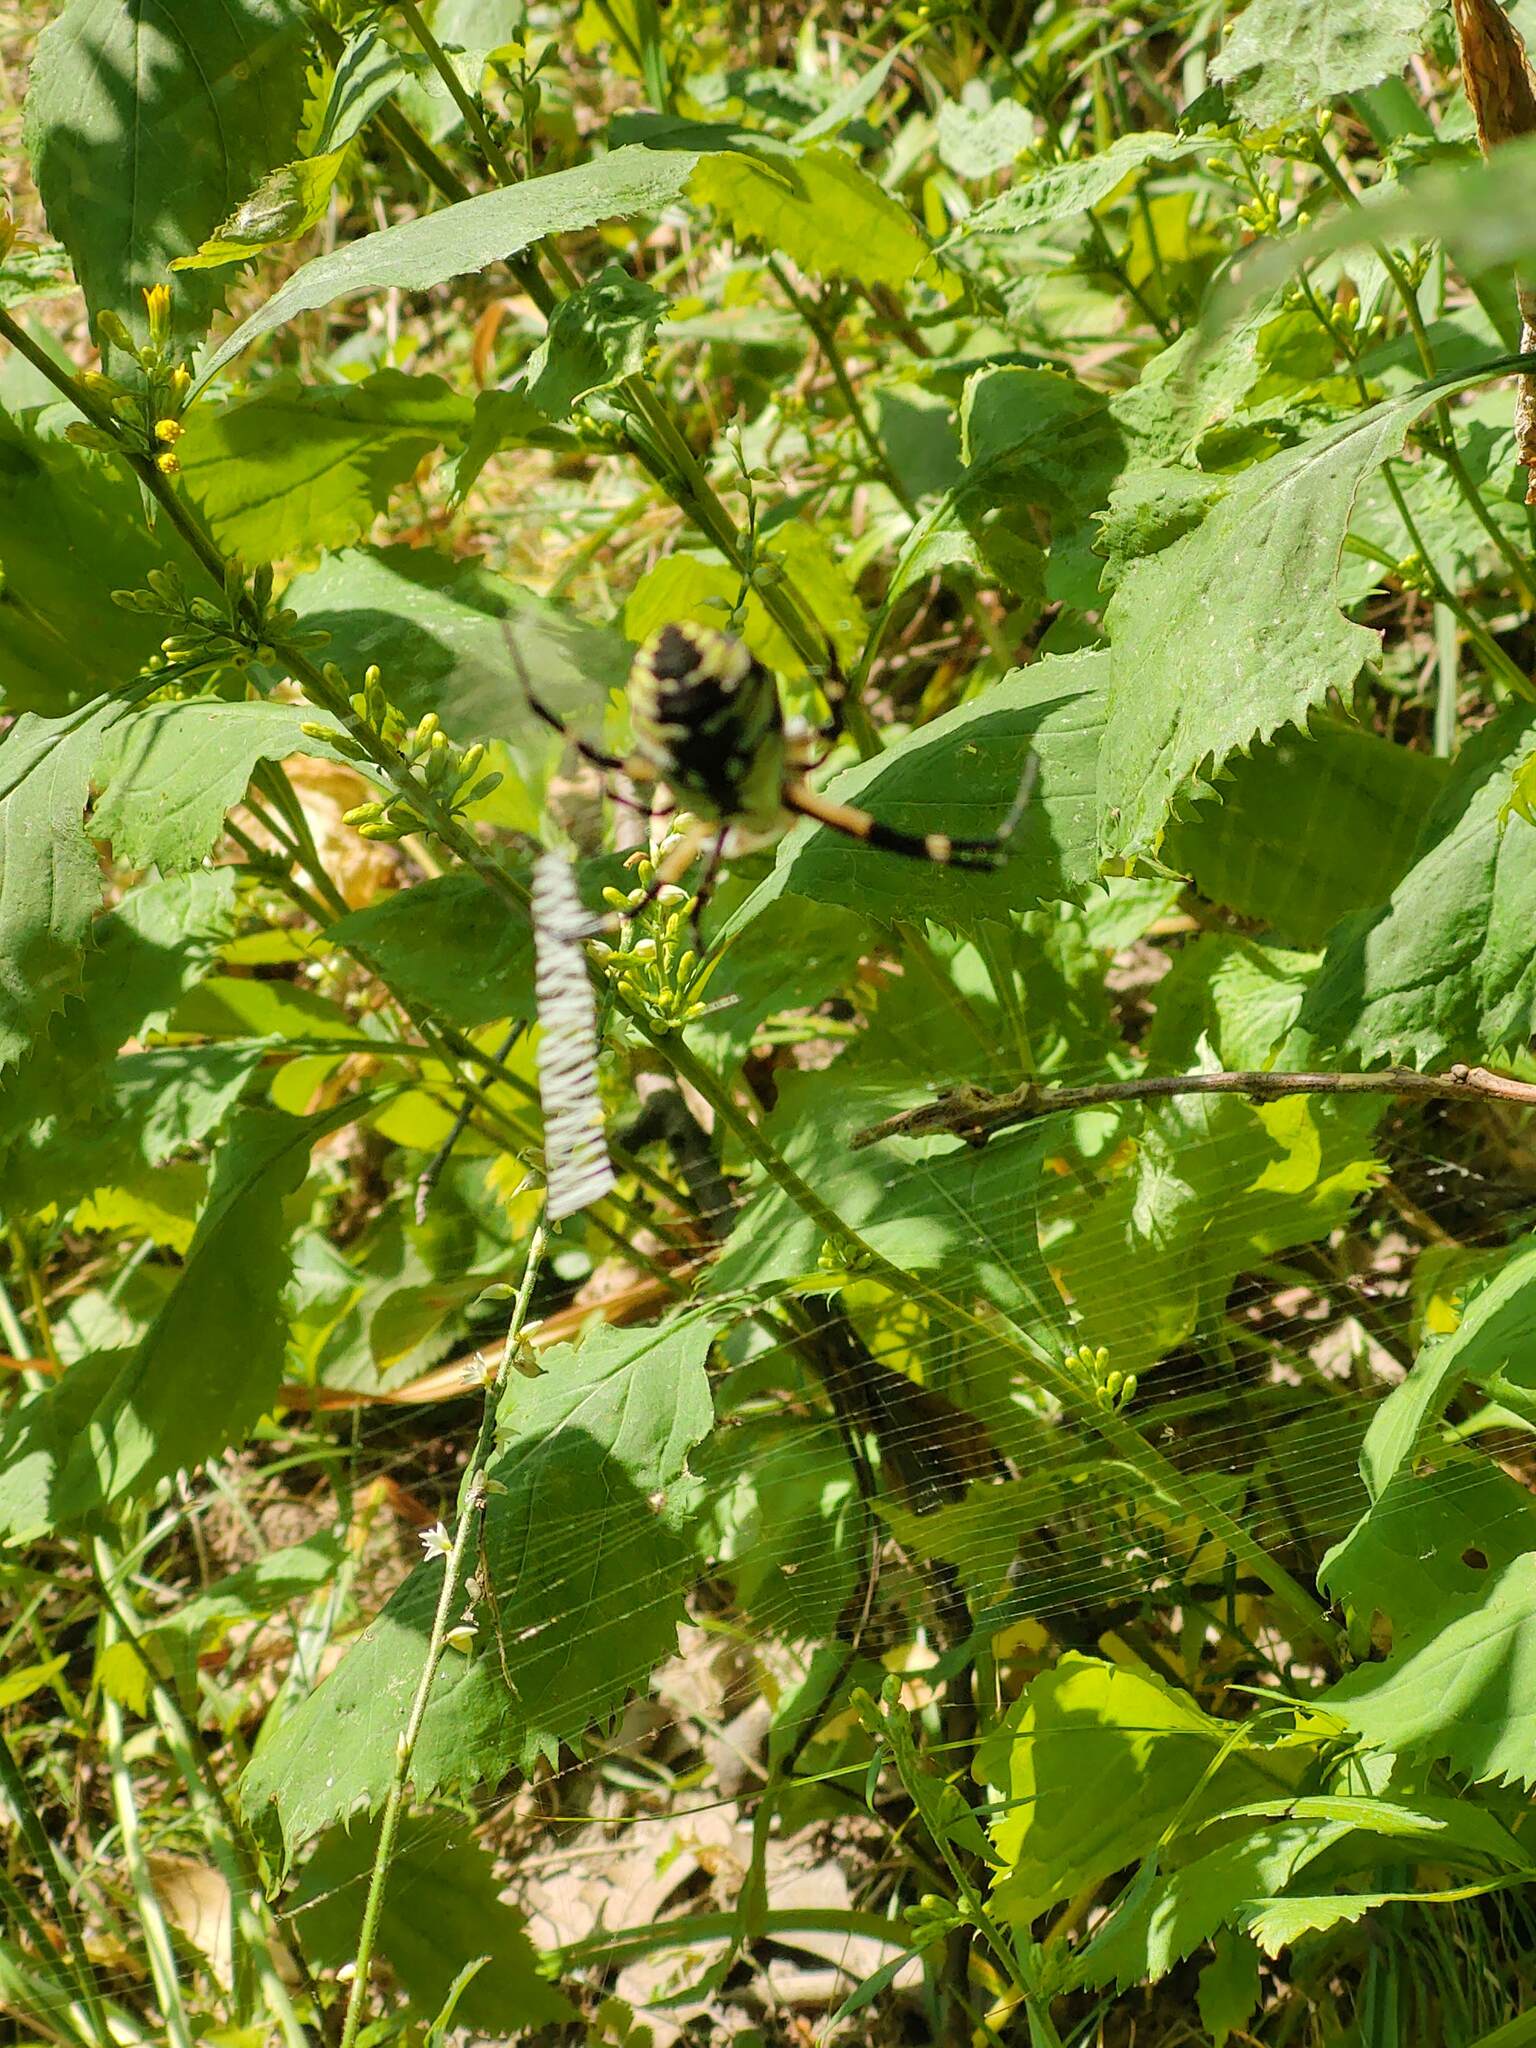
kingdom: Animalia
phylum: Arthropoda
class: Arachnida
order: Araneae
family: Araneidae
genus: Argiope
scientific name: Argiope aurantia
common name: Orb weavers
